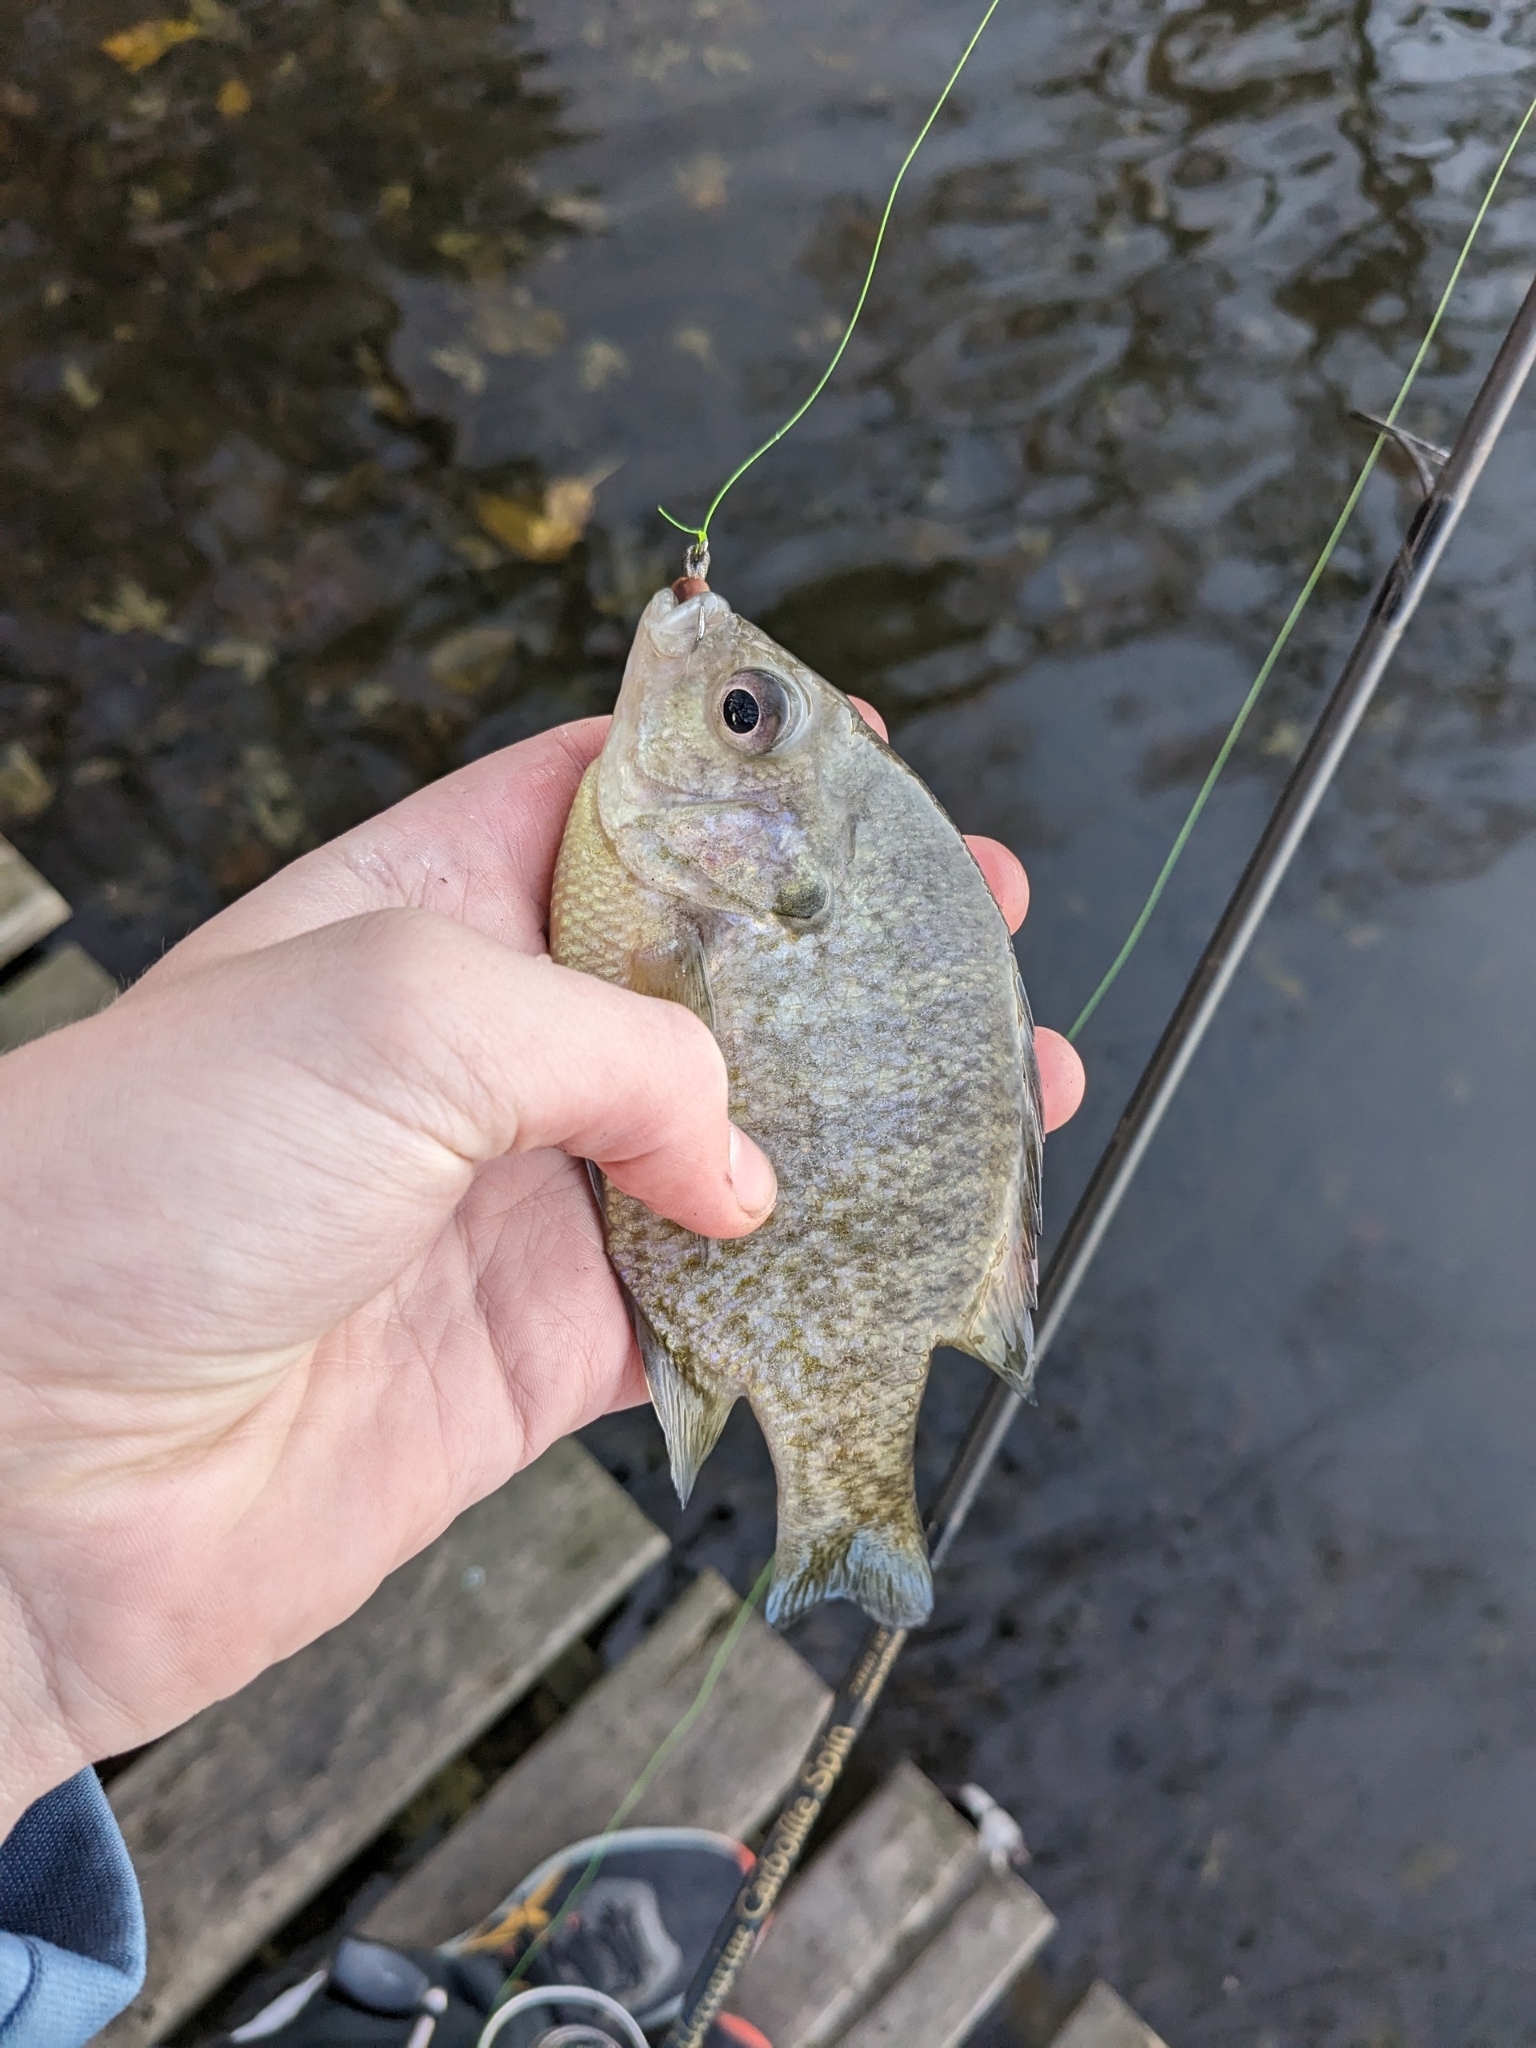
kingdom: Animalia
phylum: Chordata
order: Perciformes
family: Centrarchidae
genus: Lepomis
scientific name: Lepomis
